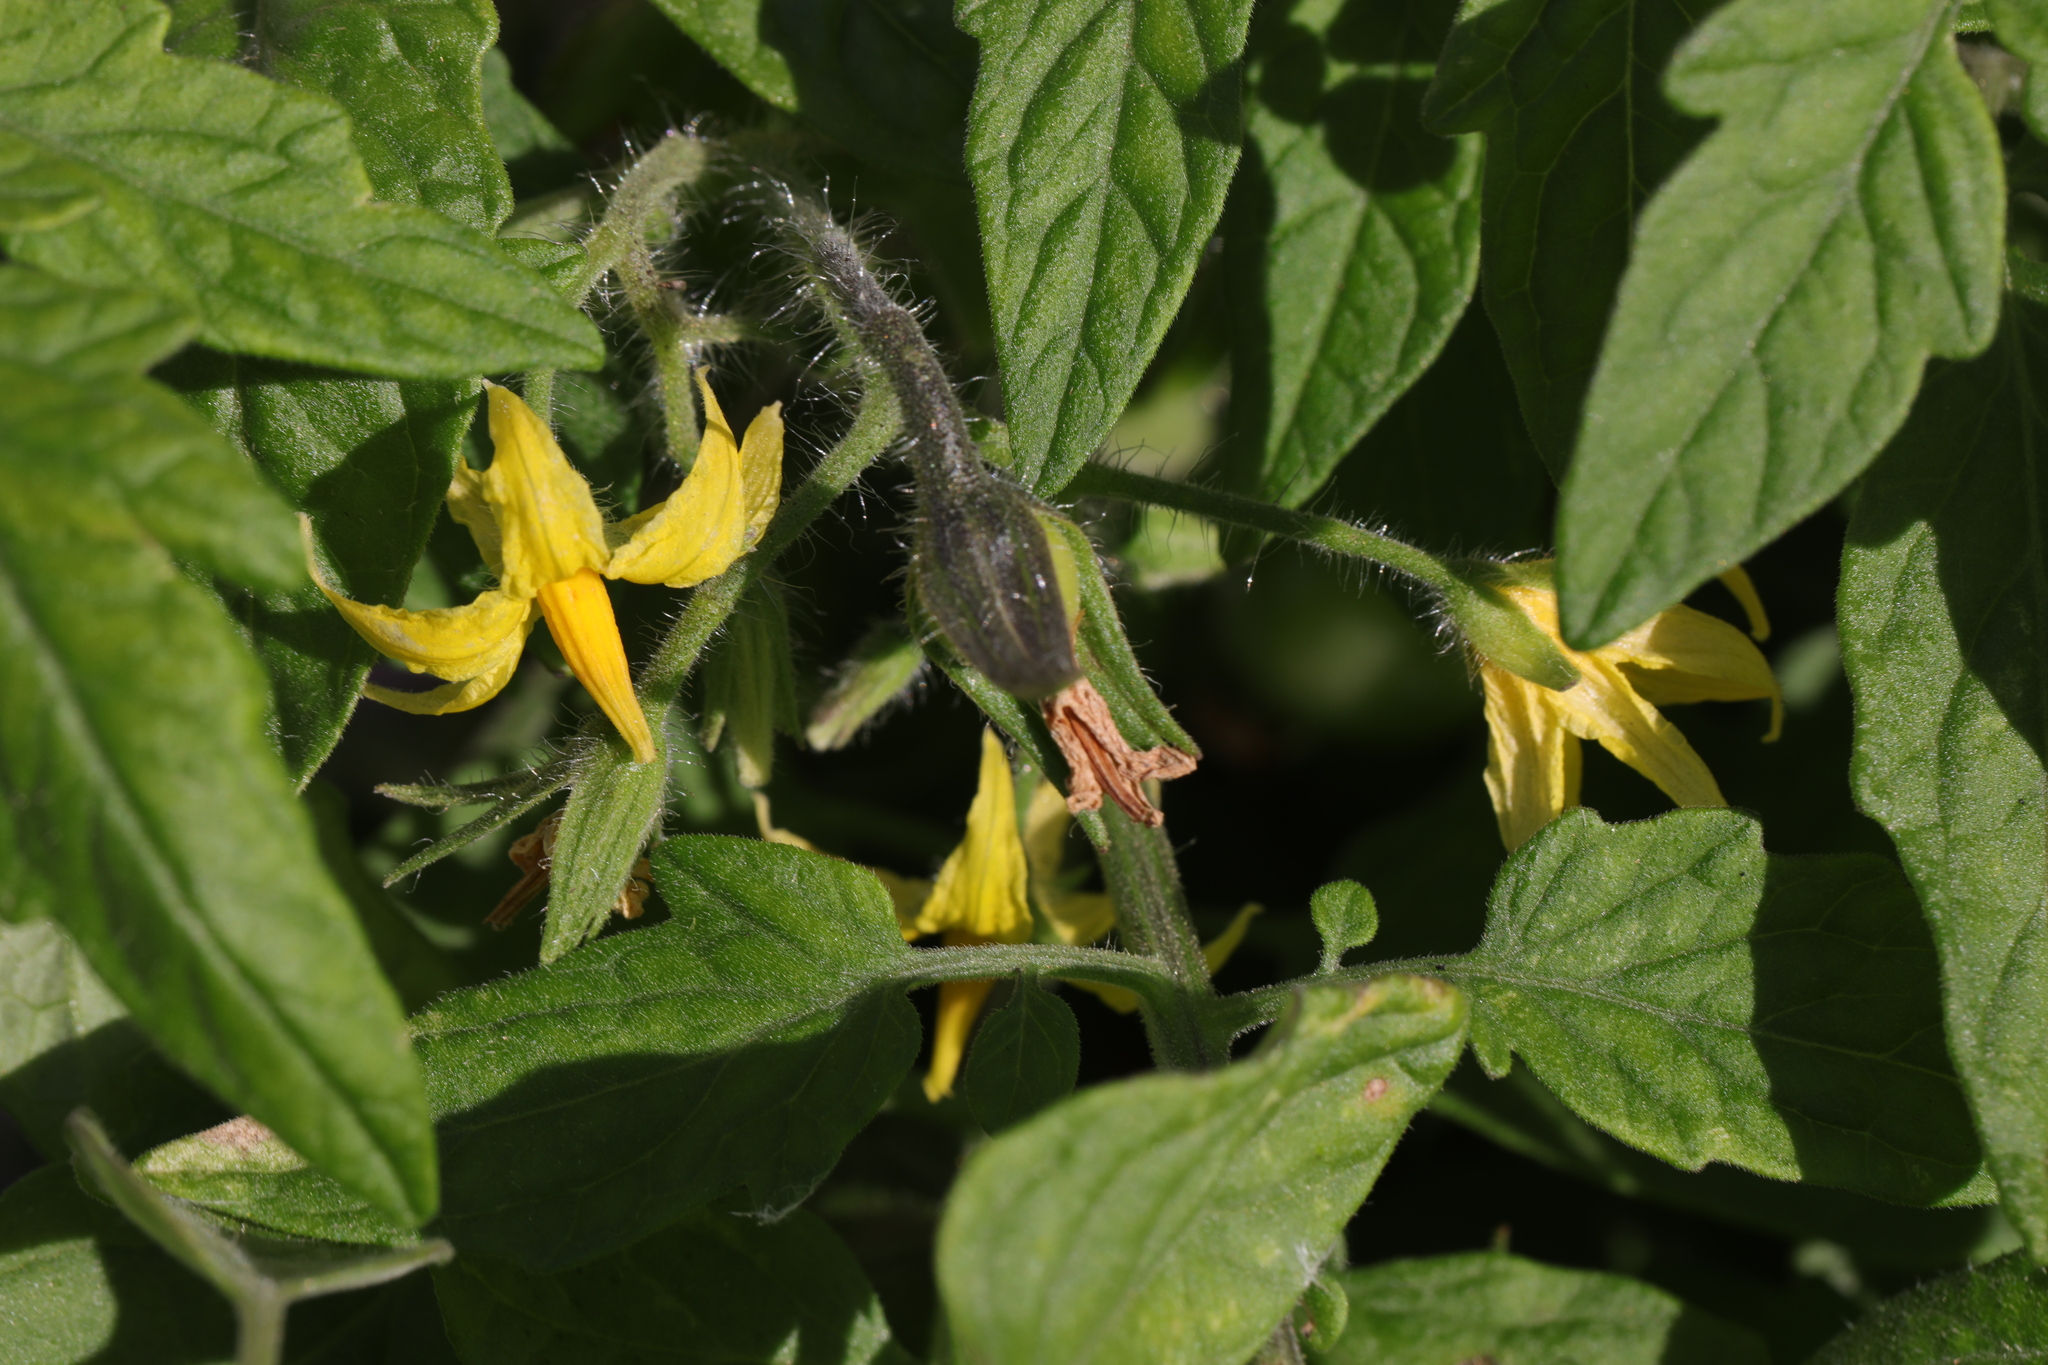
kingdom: Plantae
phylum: Tracheophyta
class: Magnoliopsida
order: Solanales
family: Solanaceae
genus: Solanum
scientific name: Solanum lycopersicum
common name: Garden tomato
